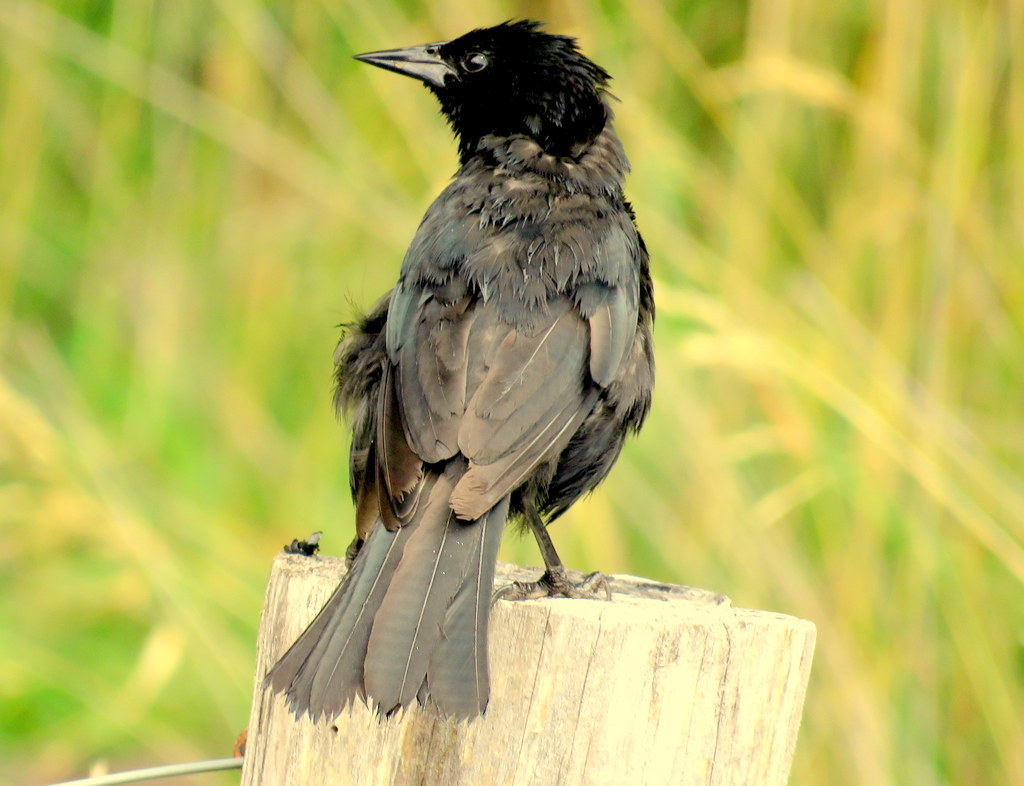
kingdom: Animalia
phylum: Chordata
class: Aves
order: Passeriformes
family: Icteridae
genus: Curaeus
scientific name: Curaeus curaeus
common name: Austral blackbird
